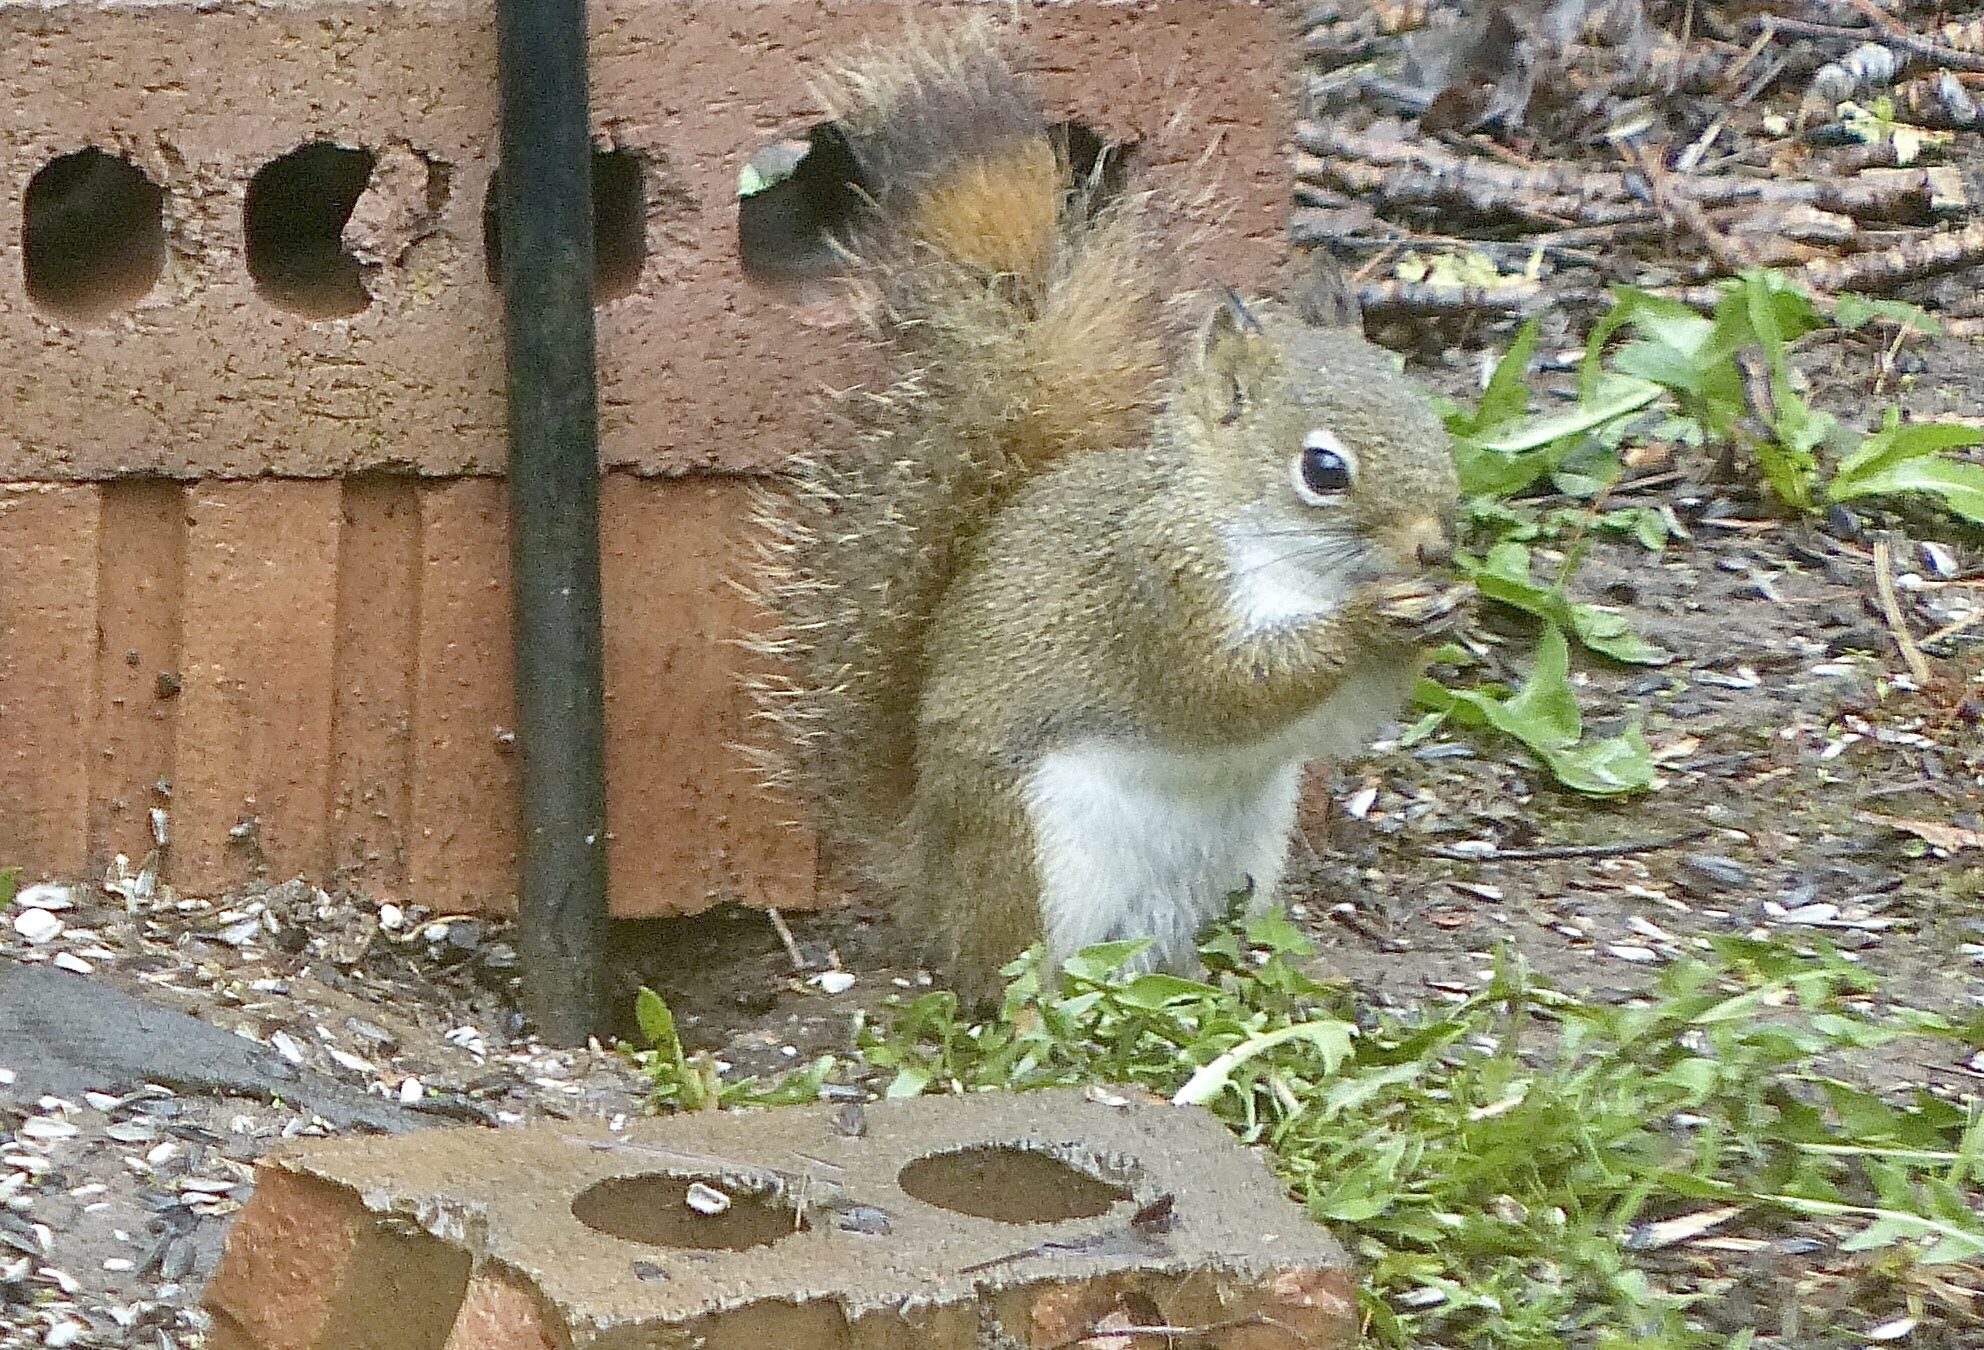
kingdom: Animalia
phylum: Chordata
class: Mammalia
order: Rodentia
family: Sciuridae
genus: Tamiasciurus
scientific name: Tamiasciurus hudsonicus
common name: Red squirrel
